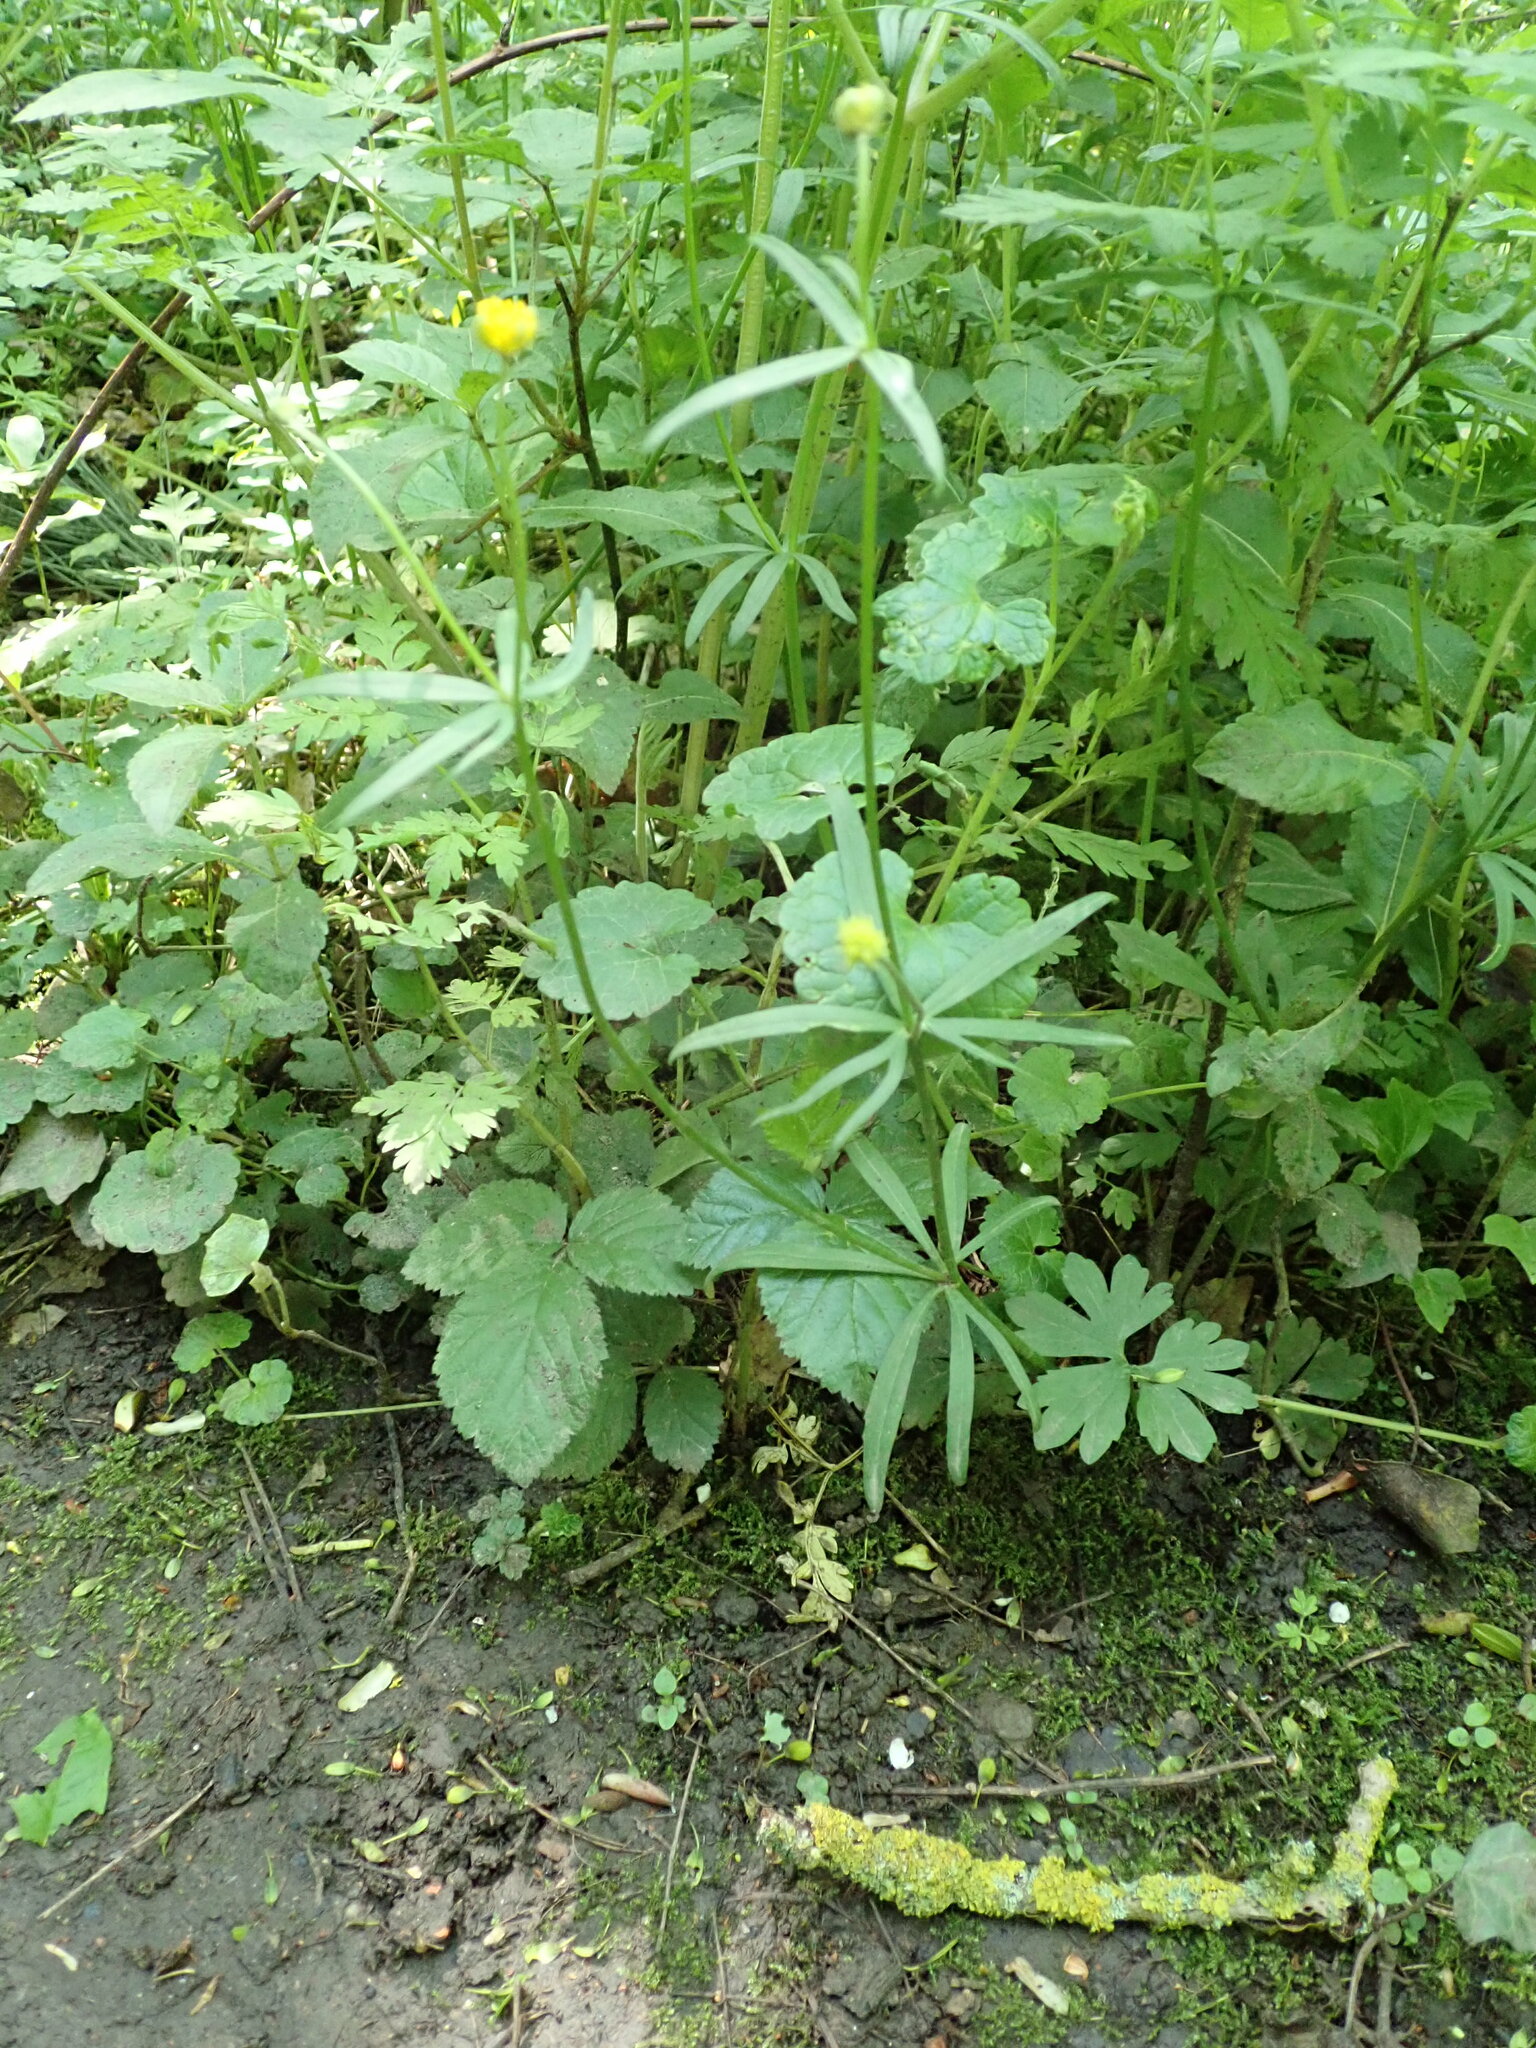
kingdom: Plantae
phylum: Tracheophyta
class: Magnoliopsida
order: Ranunculales
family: Ranunculaceae
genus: Ranunculus
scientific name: Ranunculus auricomus
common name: Goldilocks buttercup
